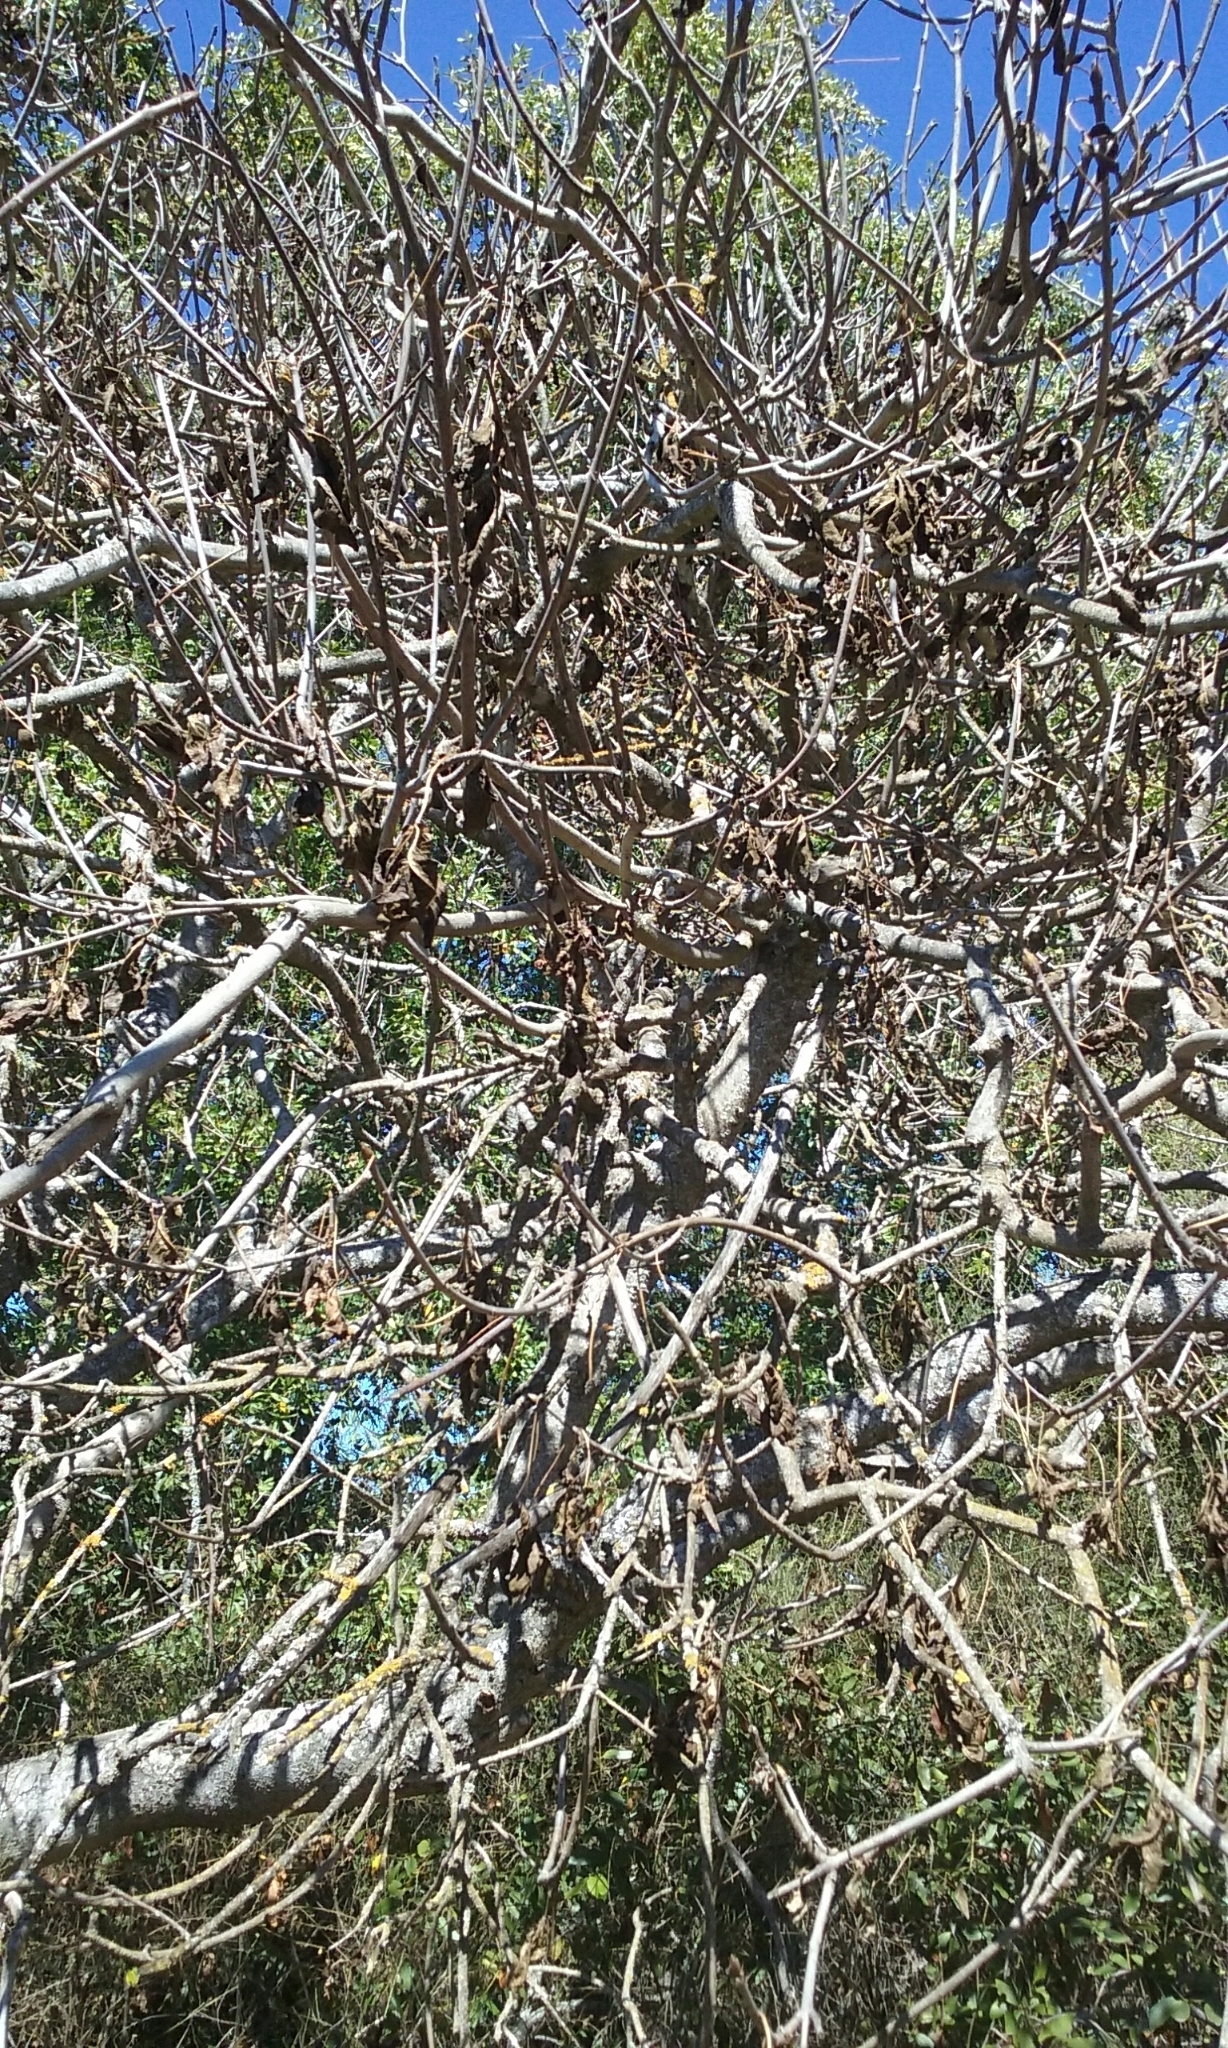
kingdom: Plantae
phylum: Tracheophyta
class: Magnoliopsida
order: Sapindales
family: Sapindaceae
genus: Aesculus
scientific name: Aesculus californica
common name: California buckeye
